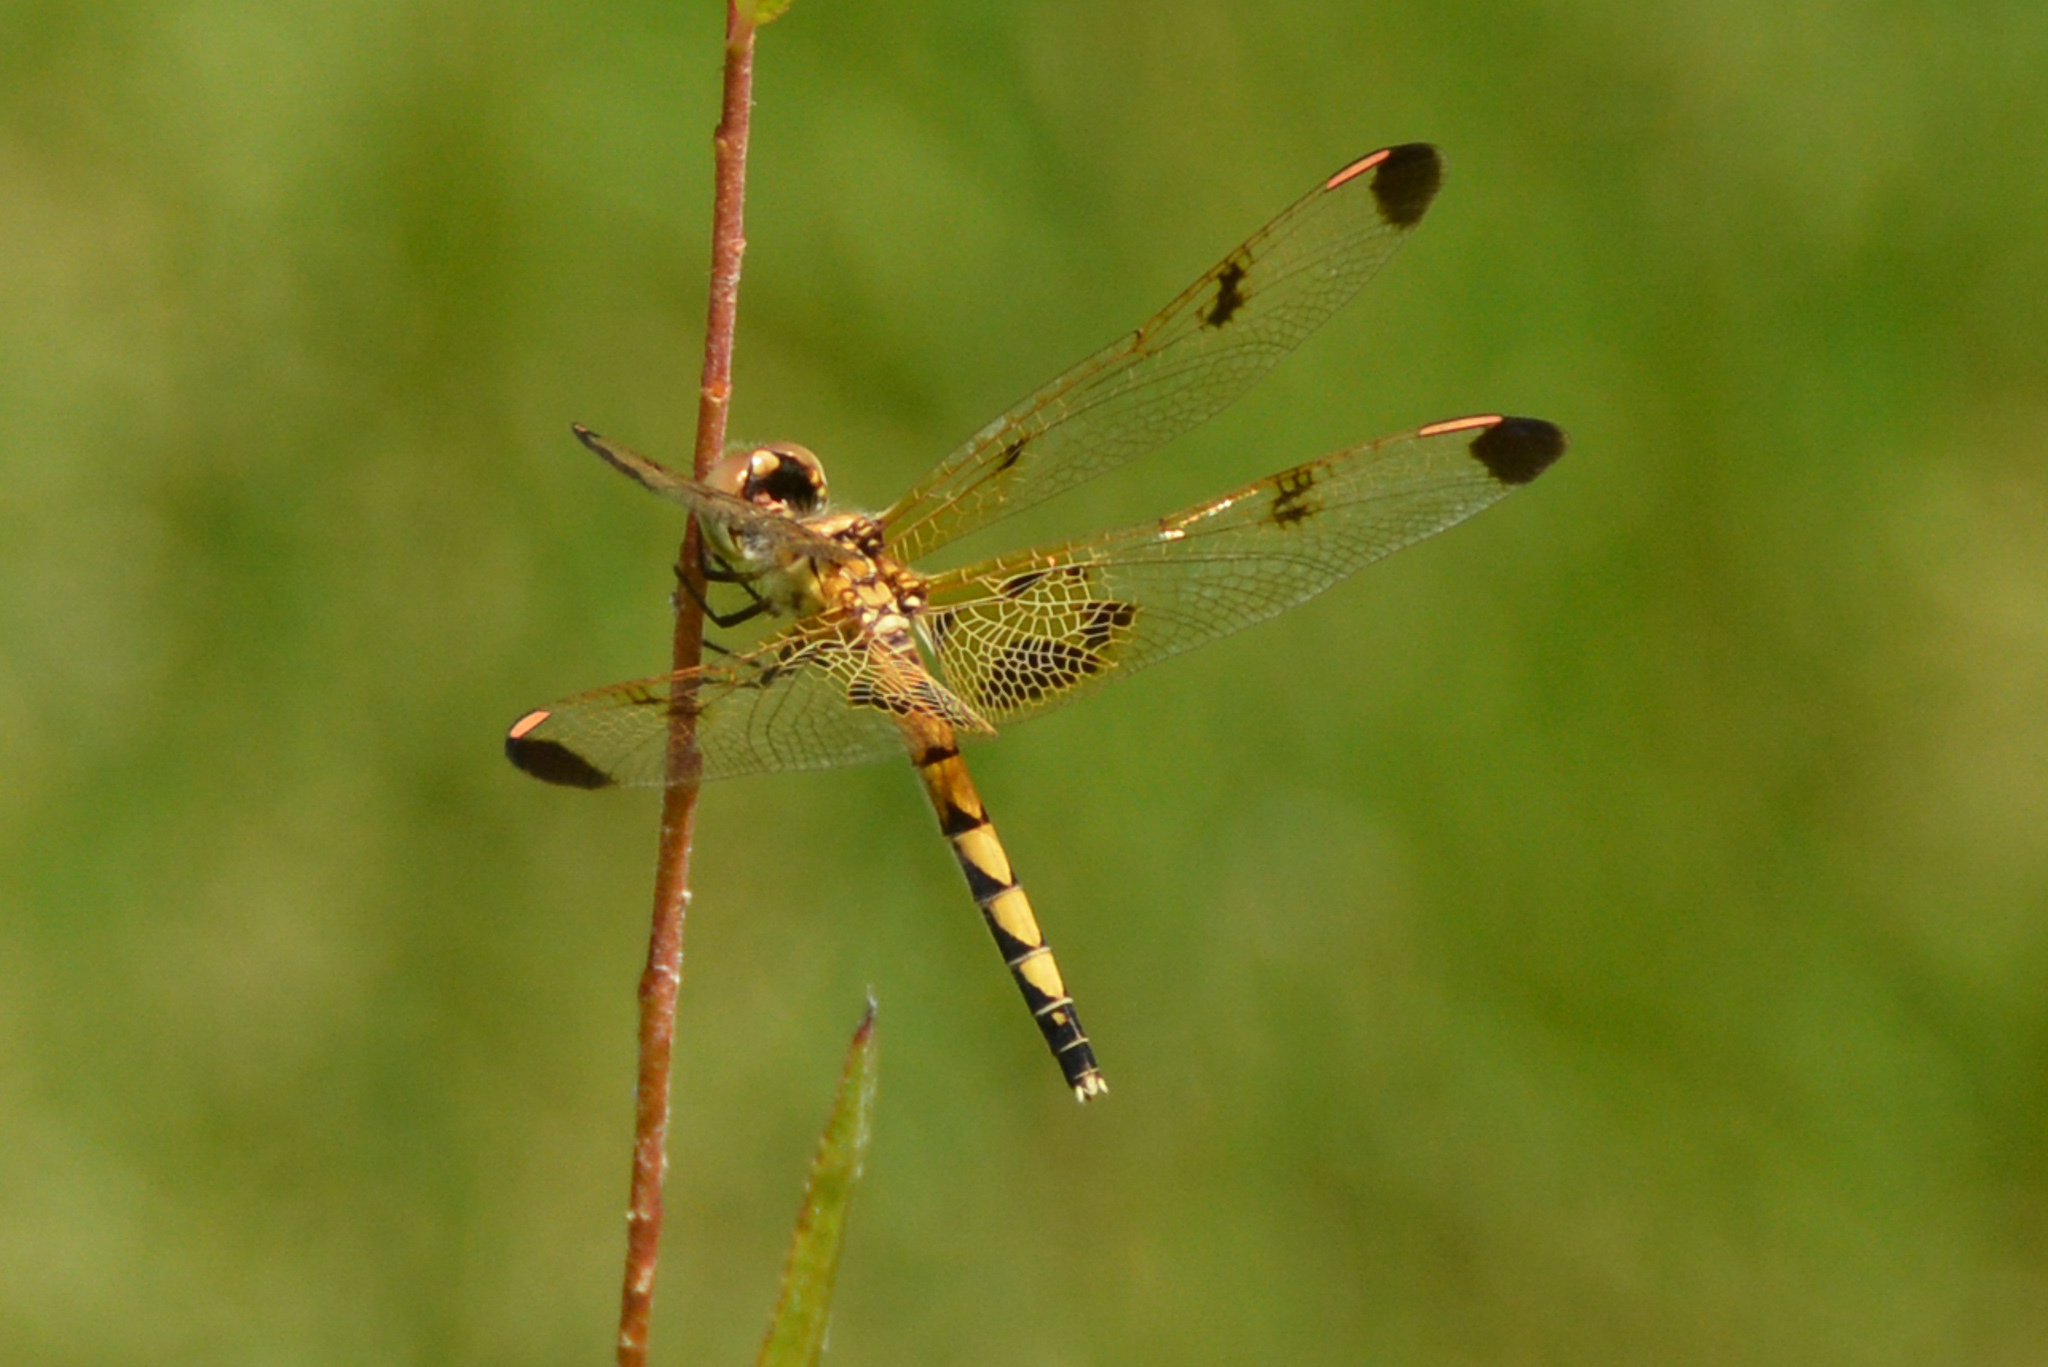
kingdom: Animalia
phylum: Arthropoda
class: Insecta
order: Odonata
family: Libellulidae
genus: Celithemis
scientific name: Celithemis elisa
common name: Calico pennant
